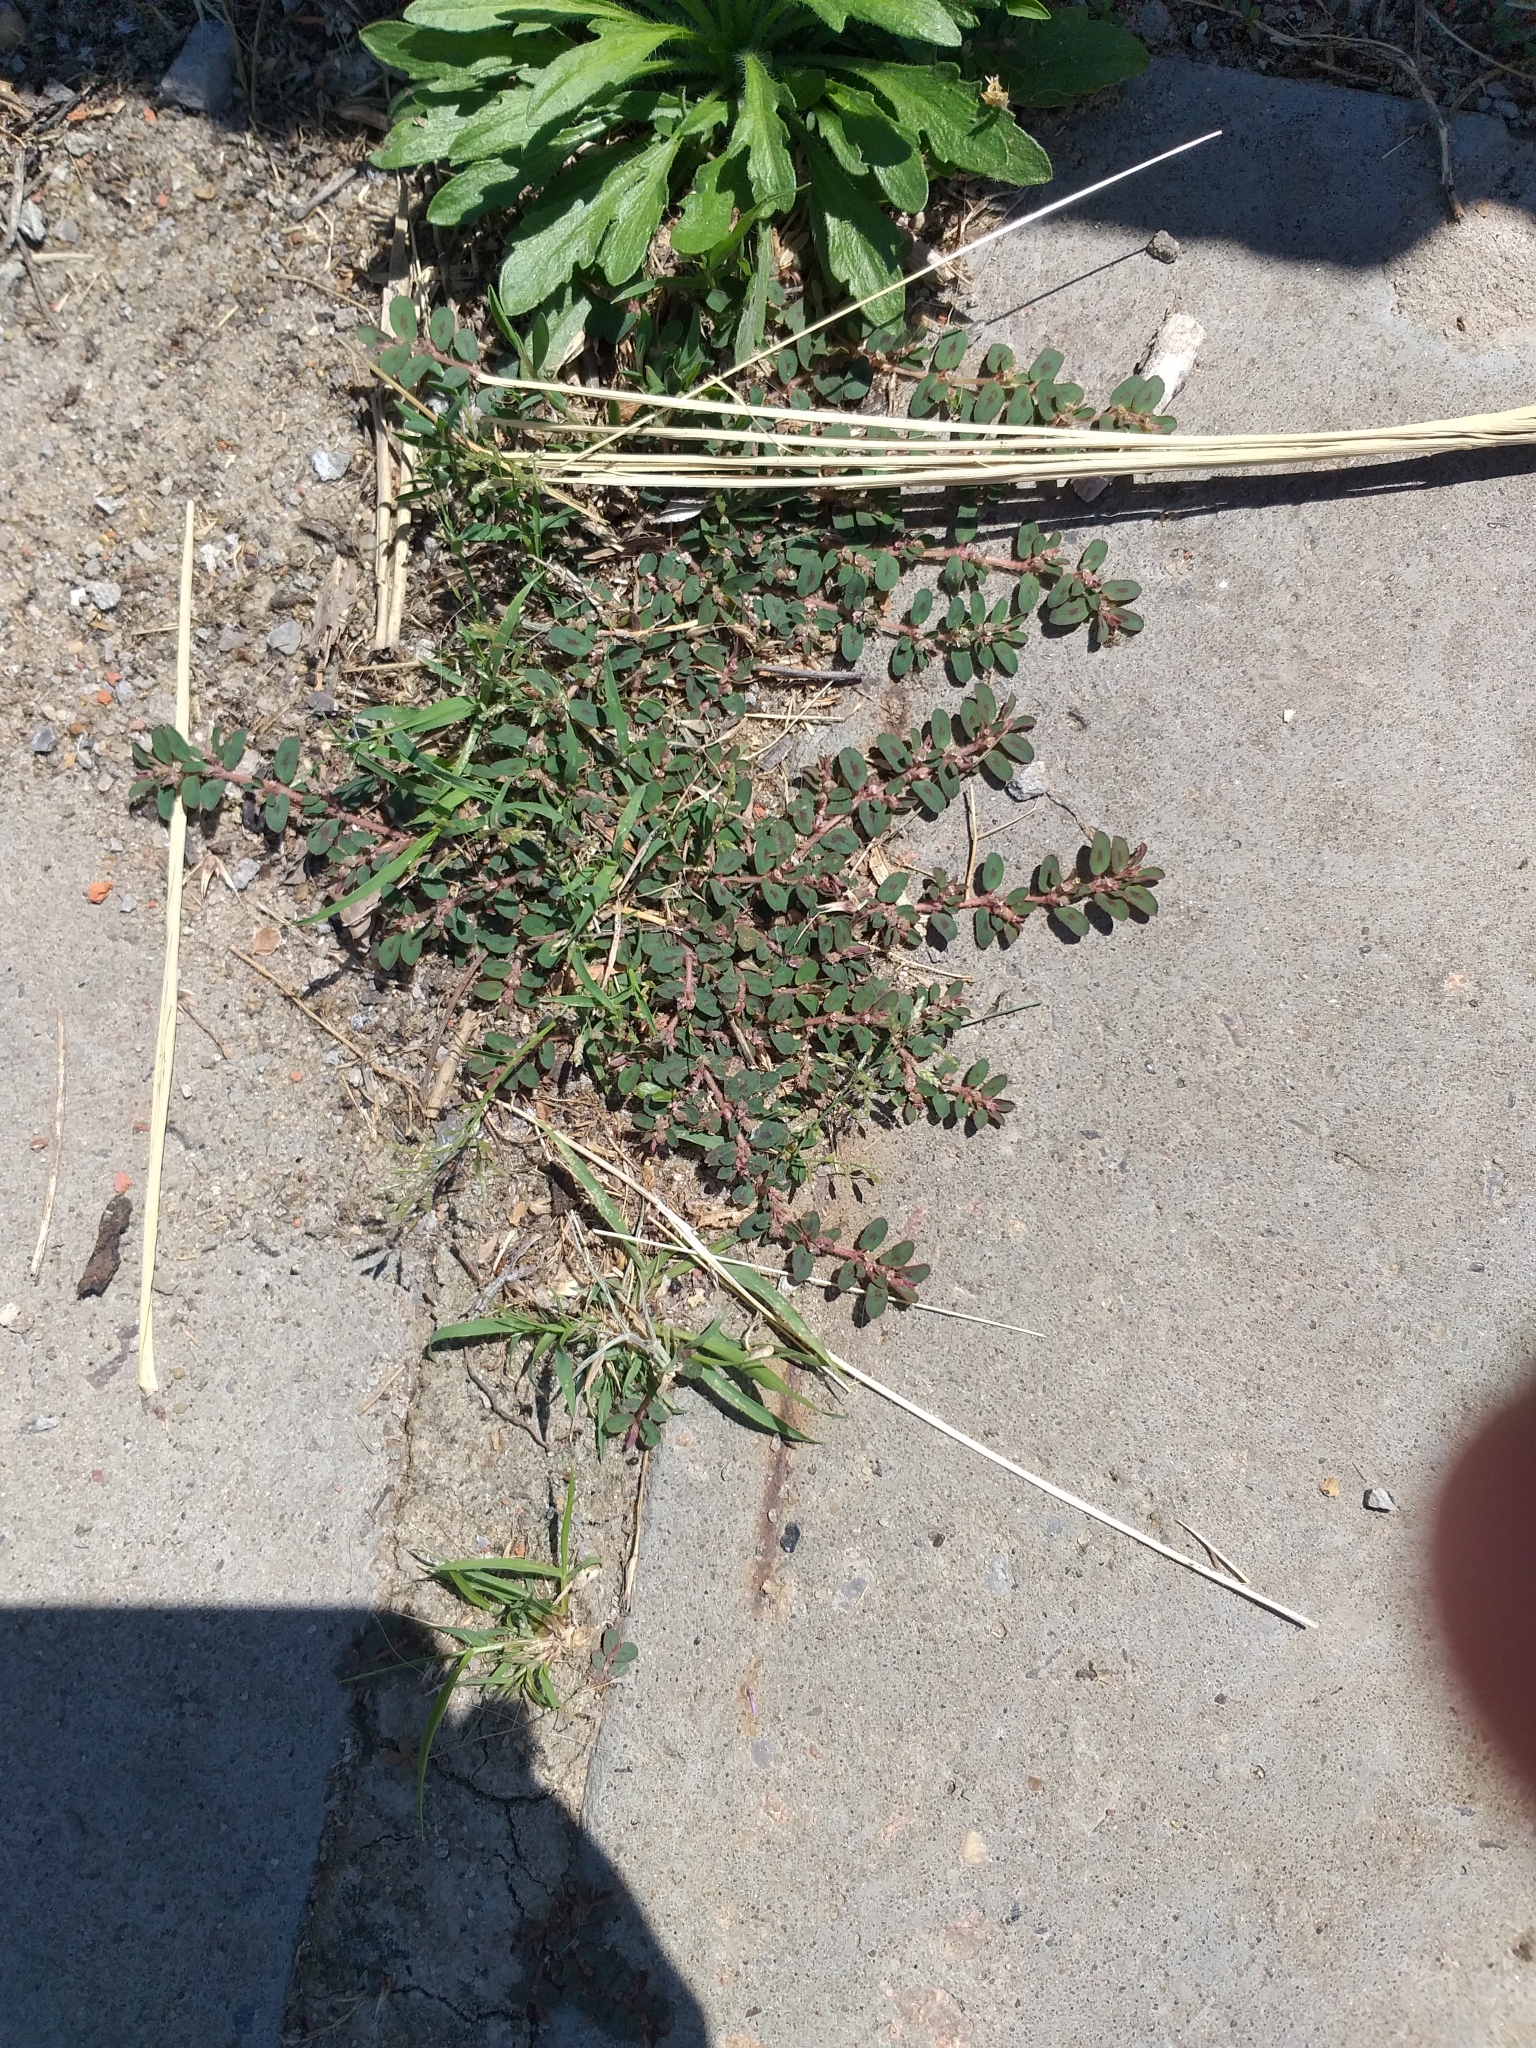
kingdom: Plantae
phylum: Tracheophyta
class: Magnoliopsida
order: Malpighiales
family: Euphorbiaceae
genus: Euphorbia
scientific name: Euphorbia maculata
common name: Spotted spurge
